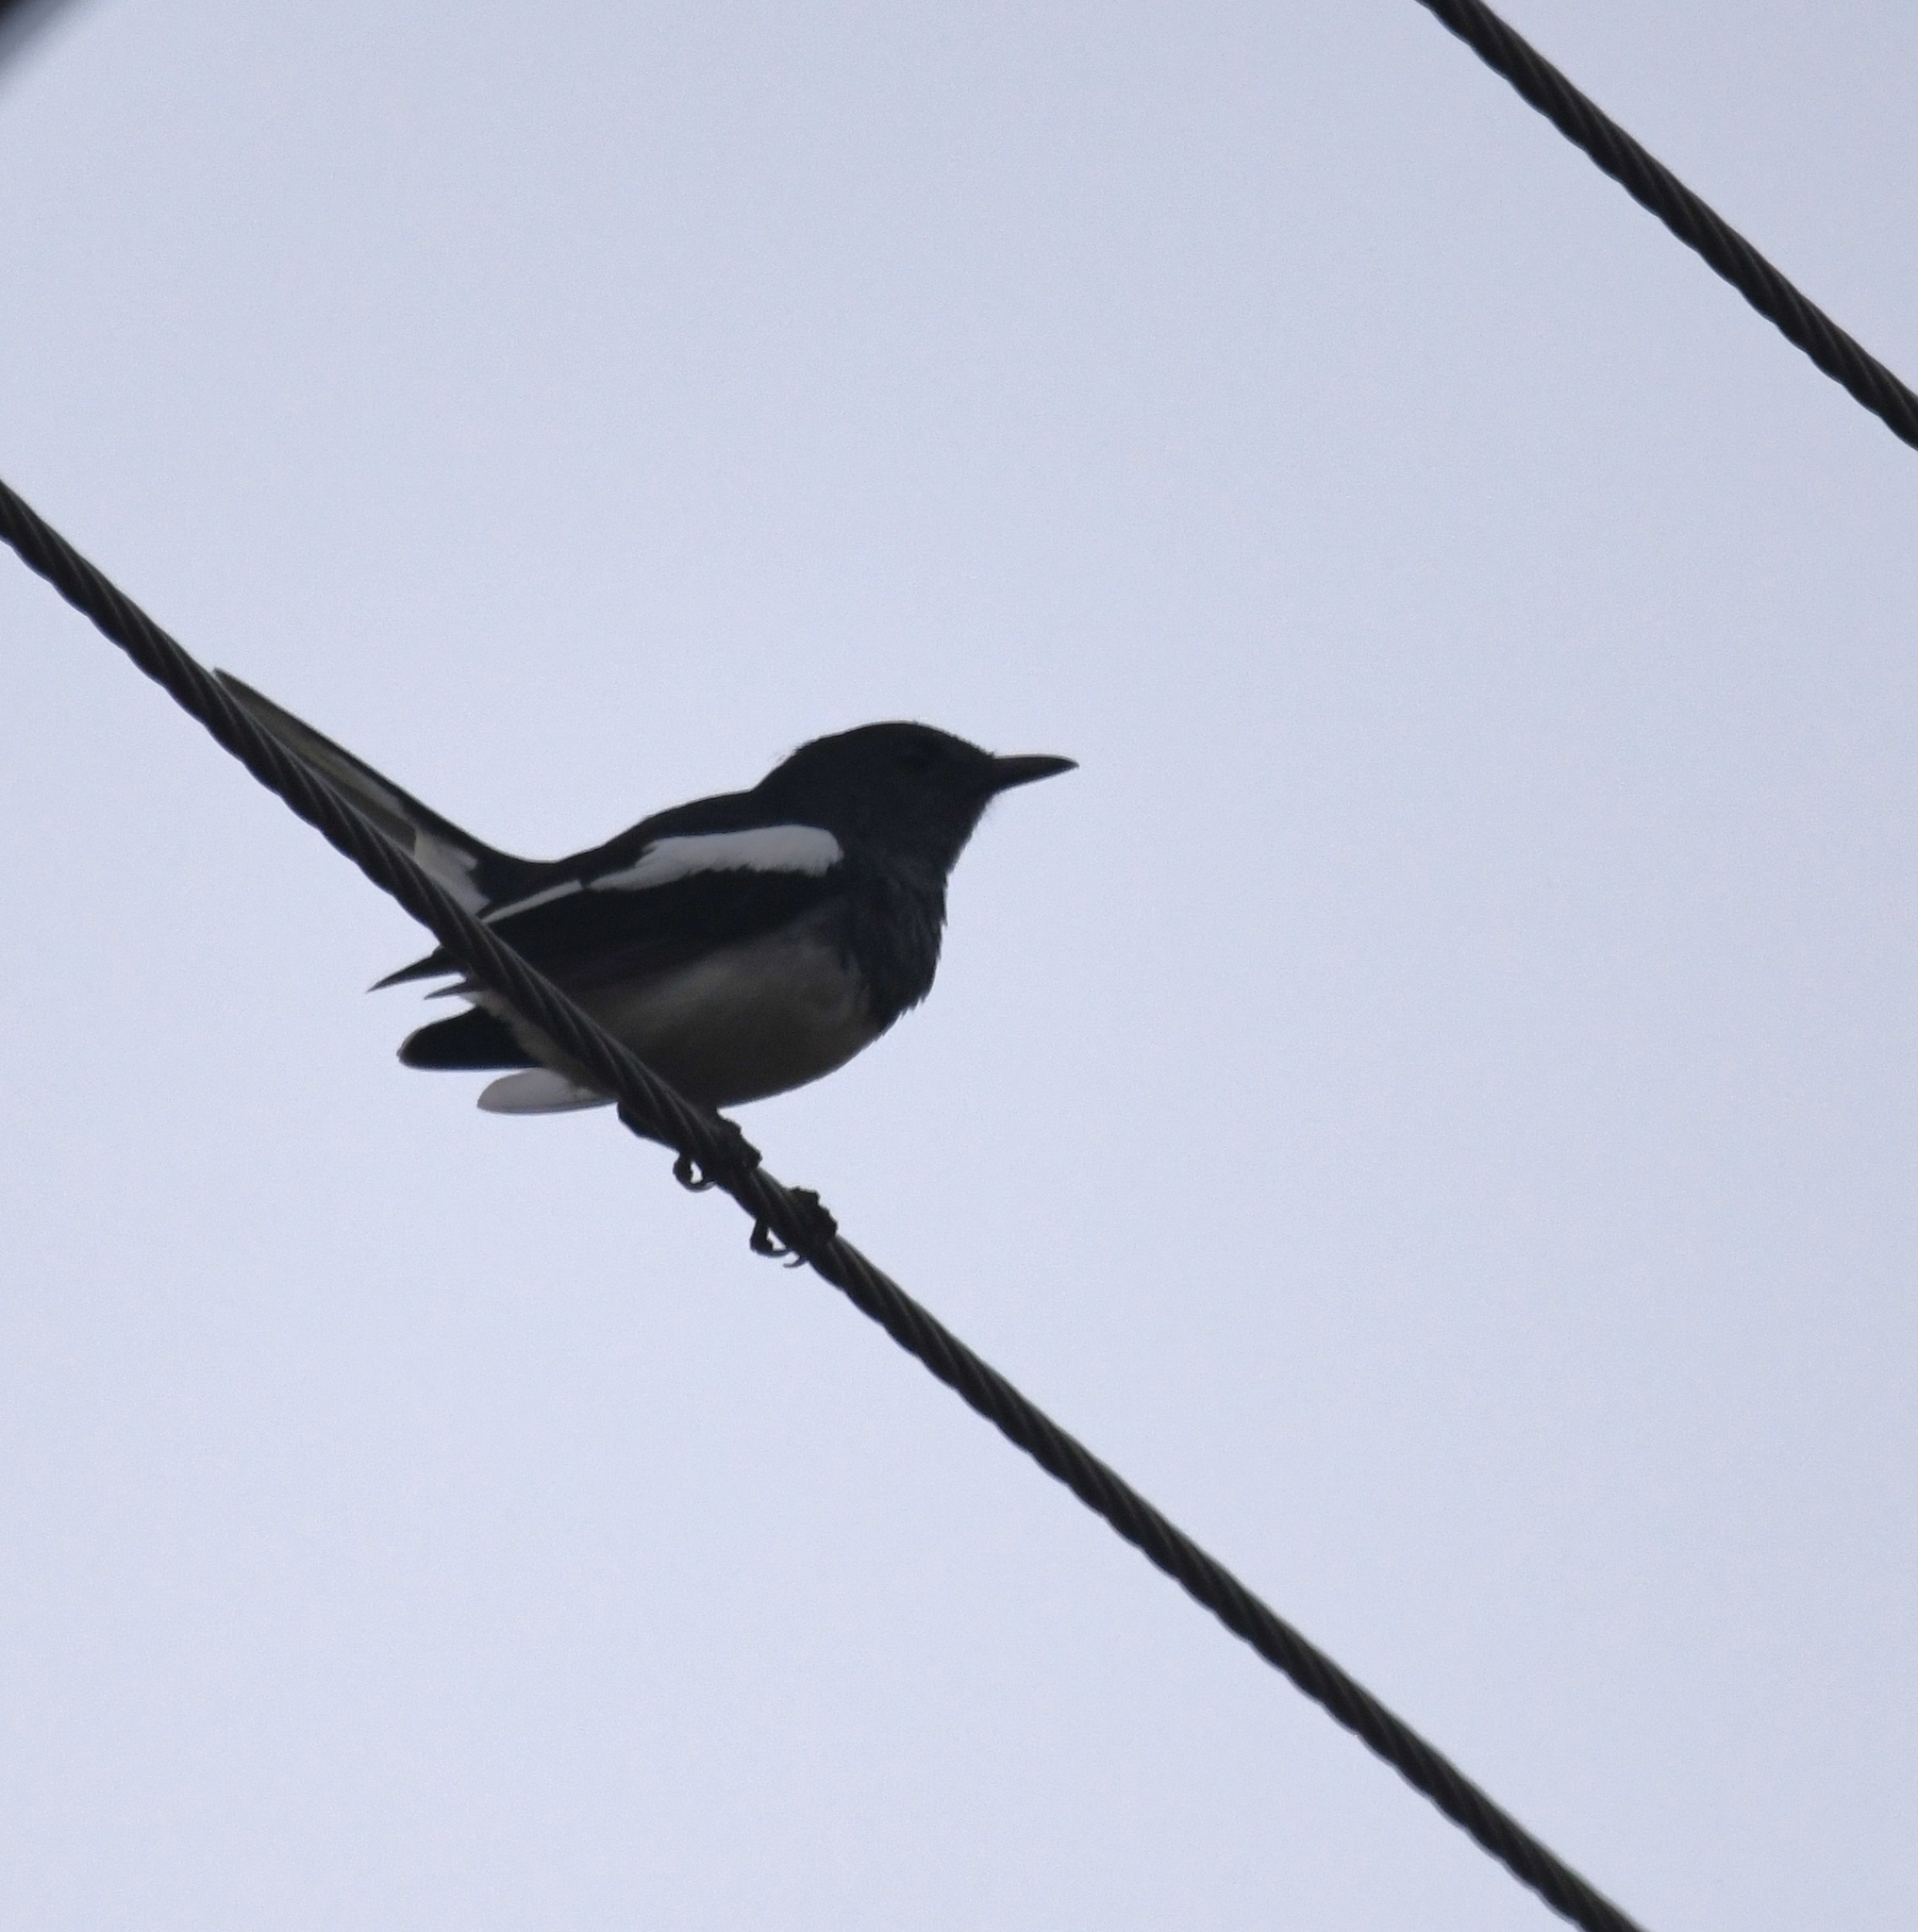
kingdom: Animalia
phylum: Chordata
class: Aves
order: Passeriformes
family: Muscicapidae
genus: Copsychus
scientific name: Copsychus saularis
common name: Oriental magpie-robin
